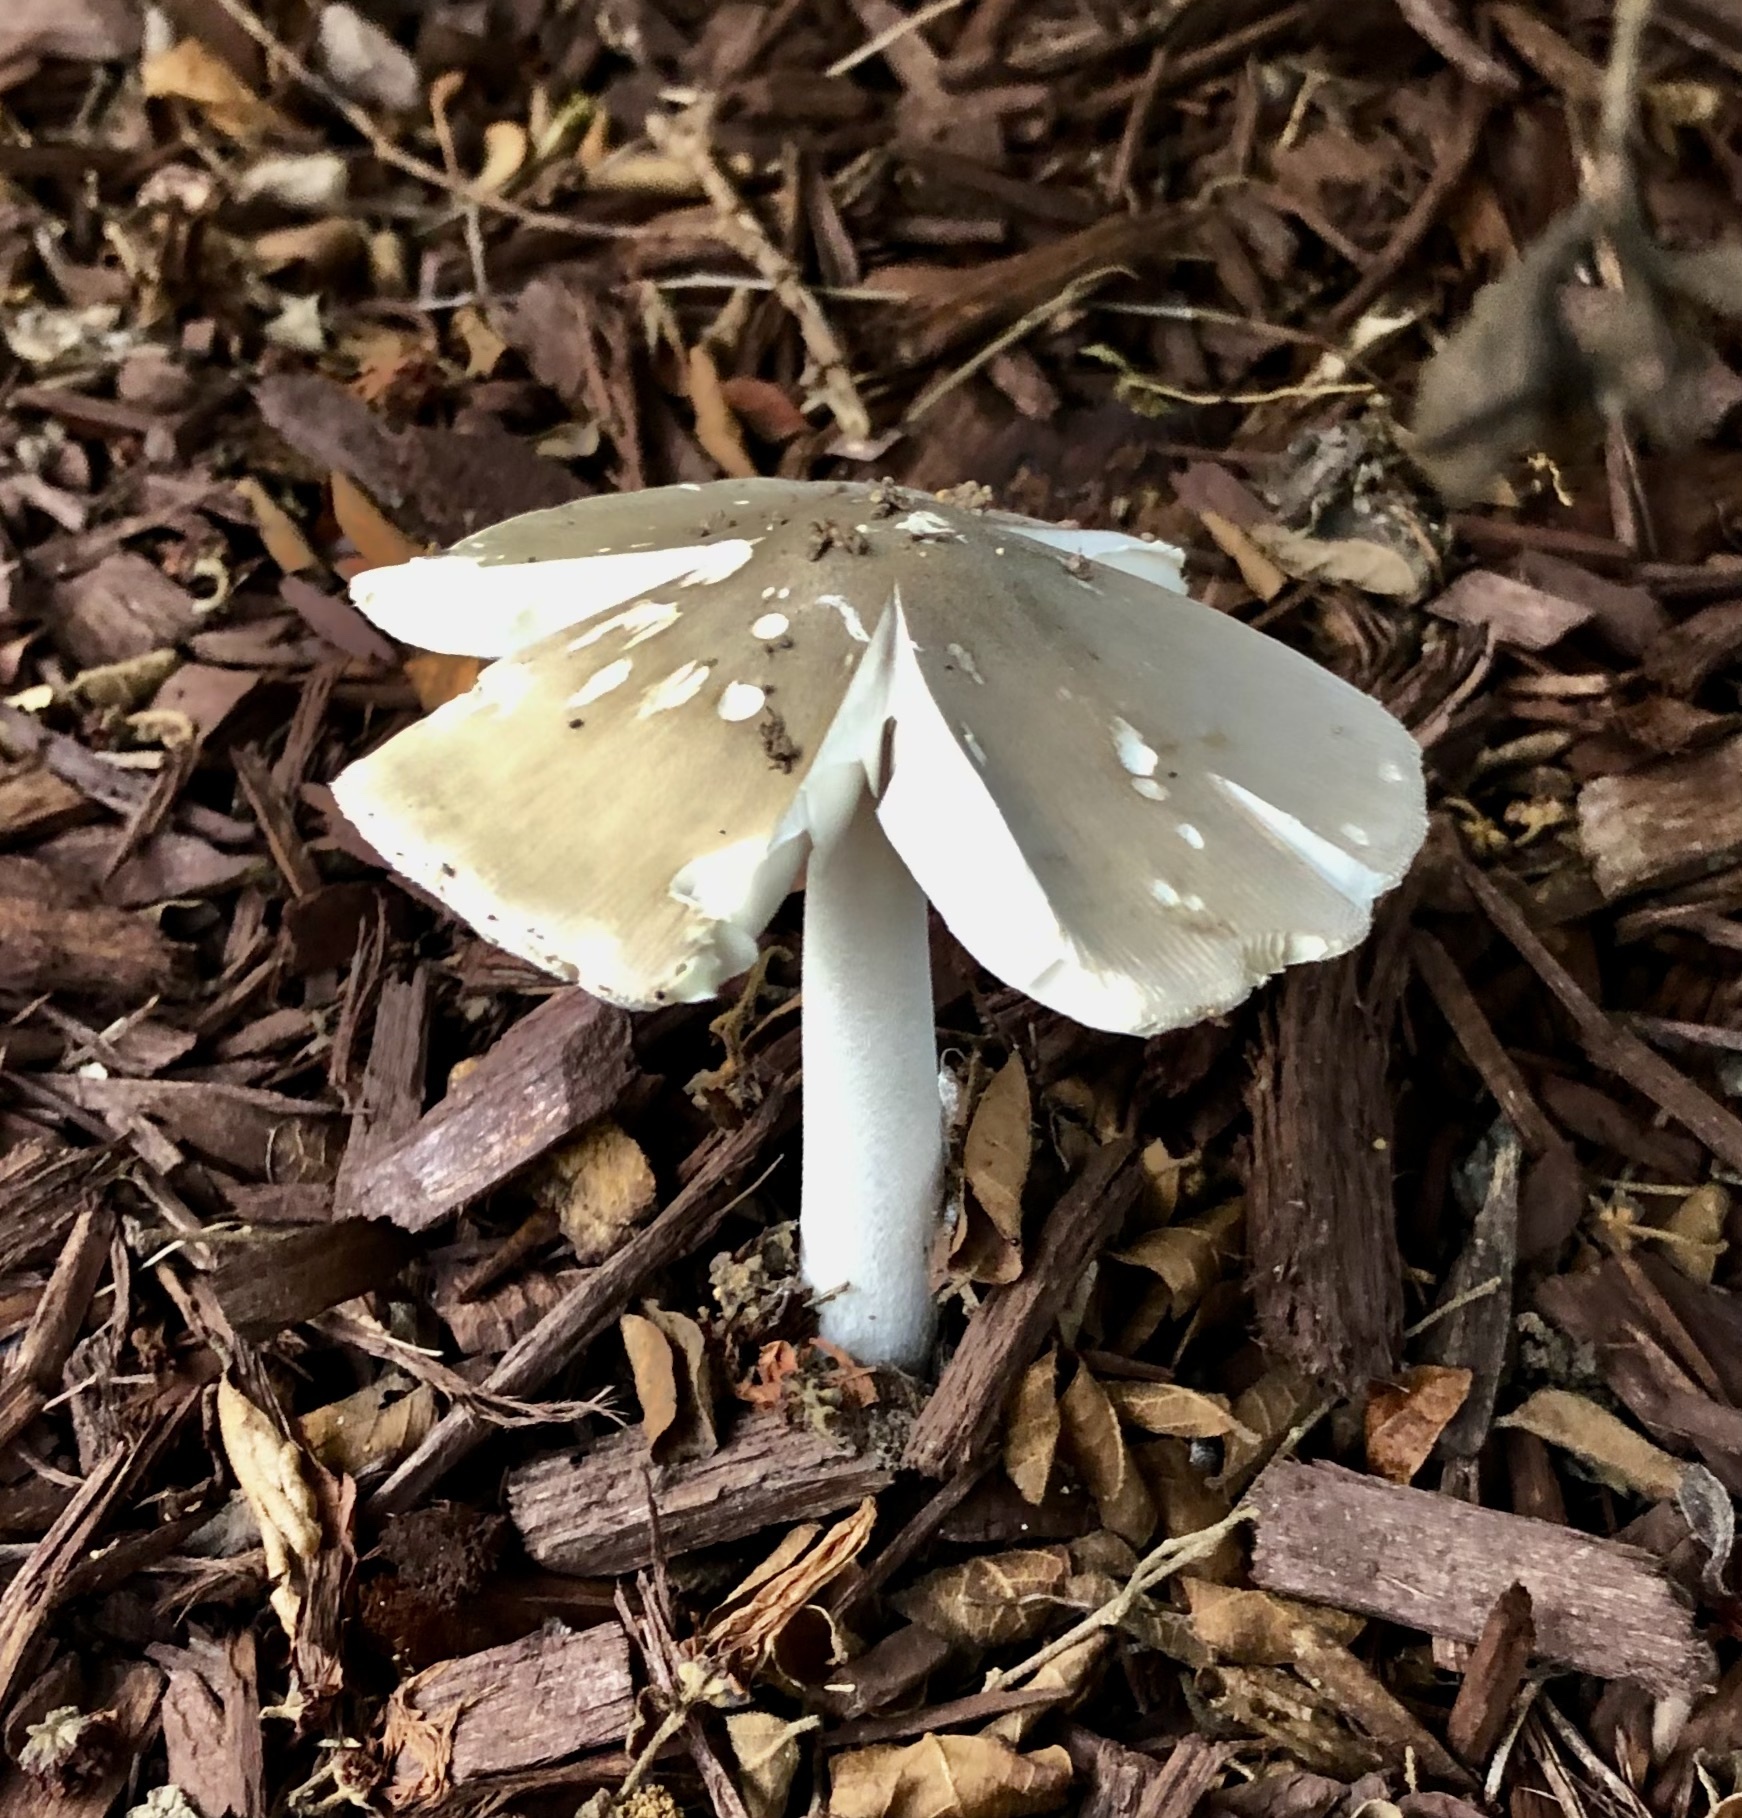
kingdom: Fungi
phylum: Basidiomycota
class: Agaricomycetes
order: Agaricales
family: Amanitaceae
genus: Amanita
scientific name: Amanita vaginata
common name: Grisette
